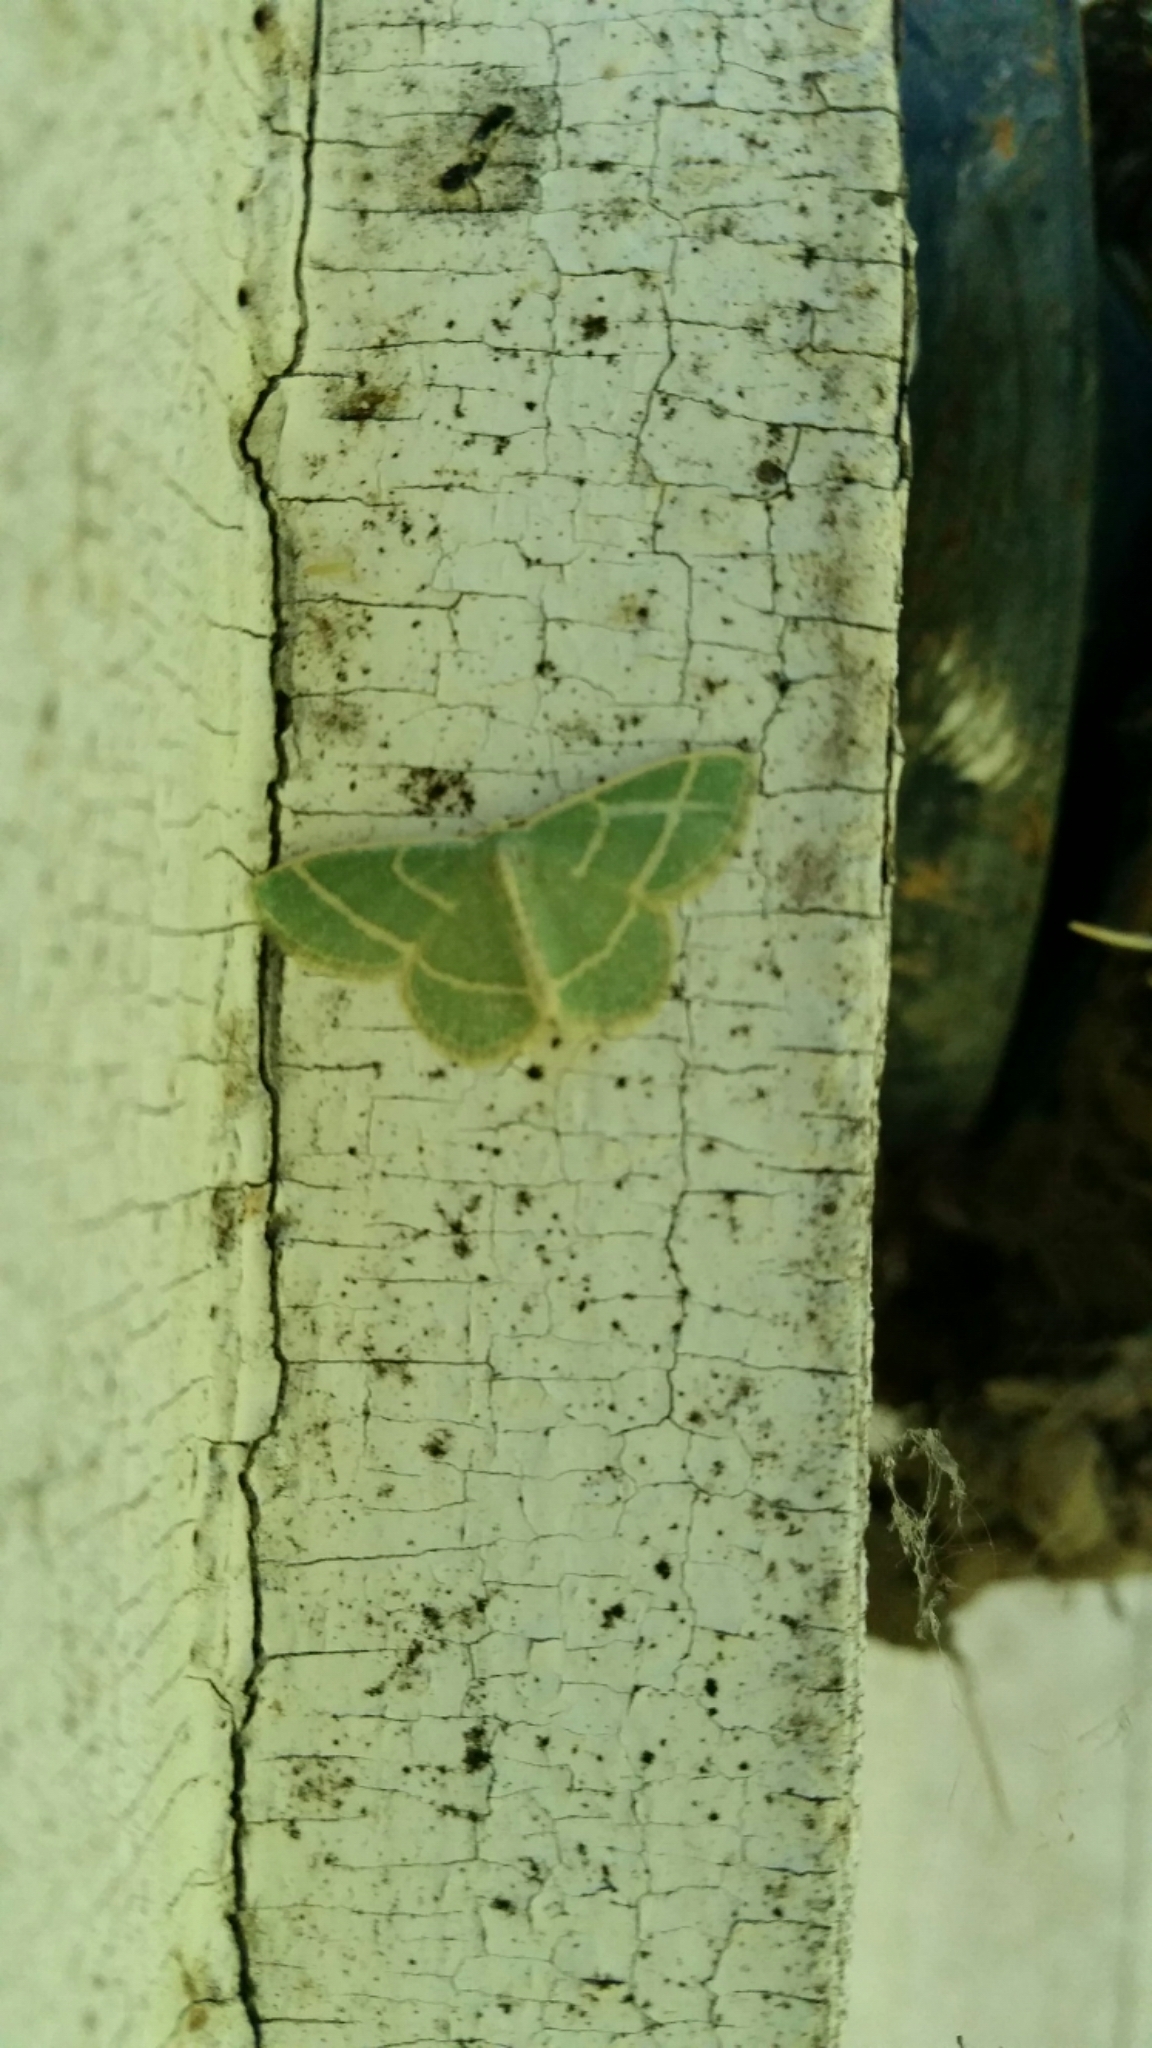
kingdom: Animalia
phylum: Arthropoda
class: Insecta
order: Lepidoptera
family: Geometridae
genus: Chlorochlamys
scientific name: Chlorochlamys chloroleucaria
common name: Blackberry looper
